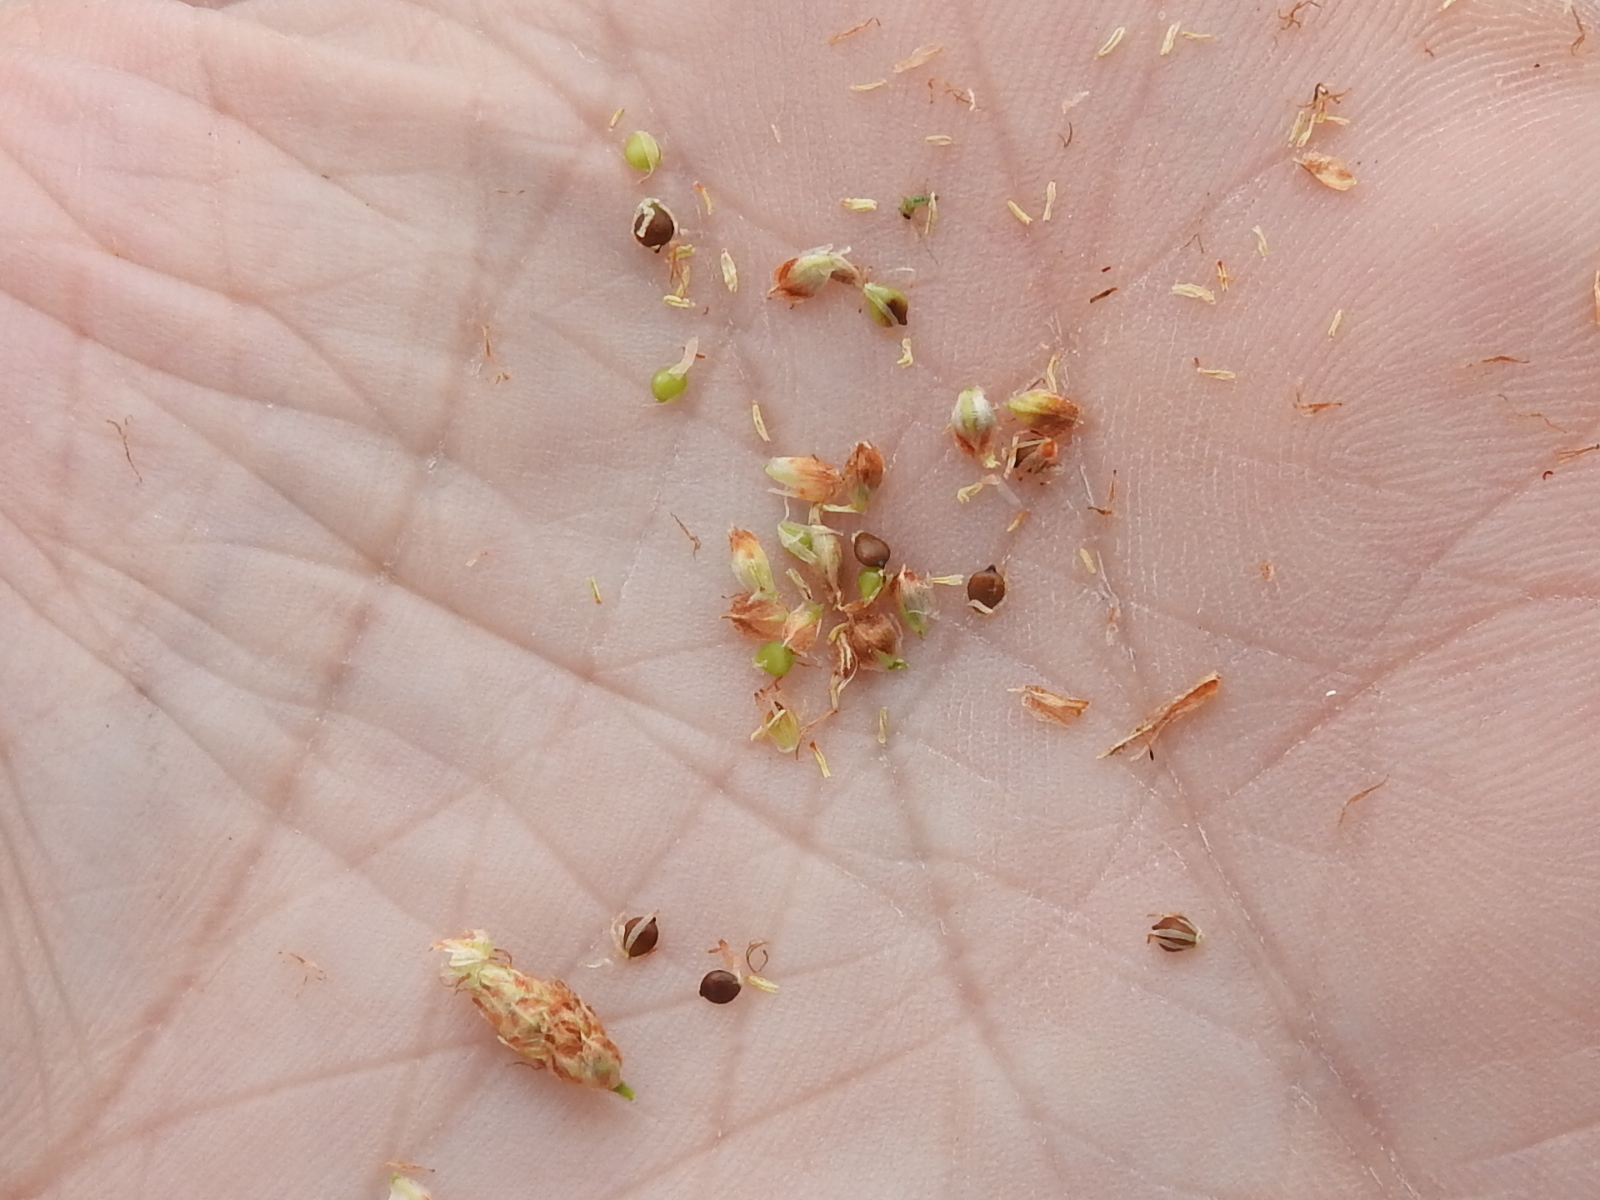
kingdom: Plantae
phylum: Tracheophyta
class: Liliopsida
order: Poales
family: Cyperaceae
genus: Schoenoplectus
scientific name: Schoenoplectus californicus
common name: California bulrush
